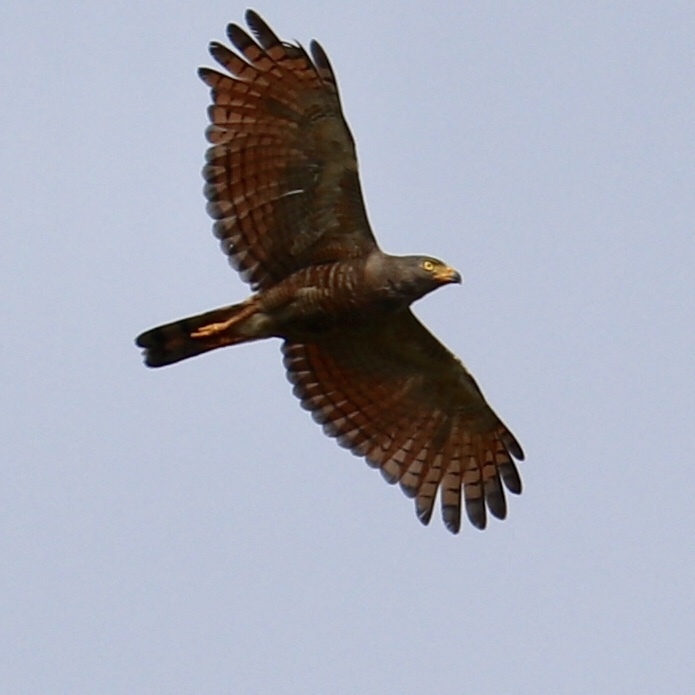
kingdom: Animalia
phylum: Chordata
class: Aves
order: Accipitriformes
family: Accipitridae
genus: Rupornis
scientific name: Rupornis magnirostris
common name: Roadside hawk
